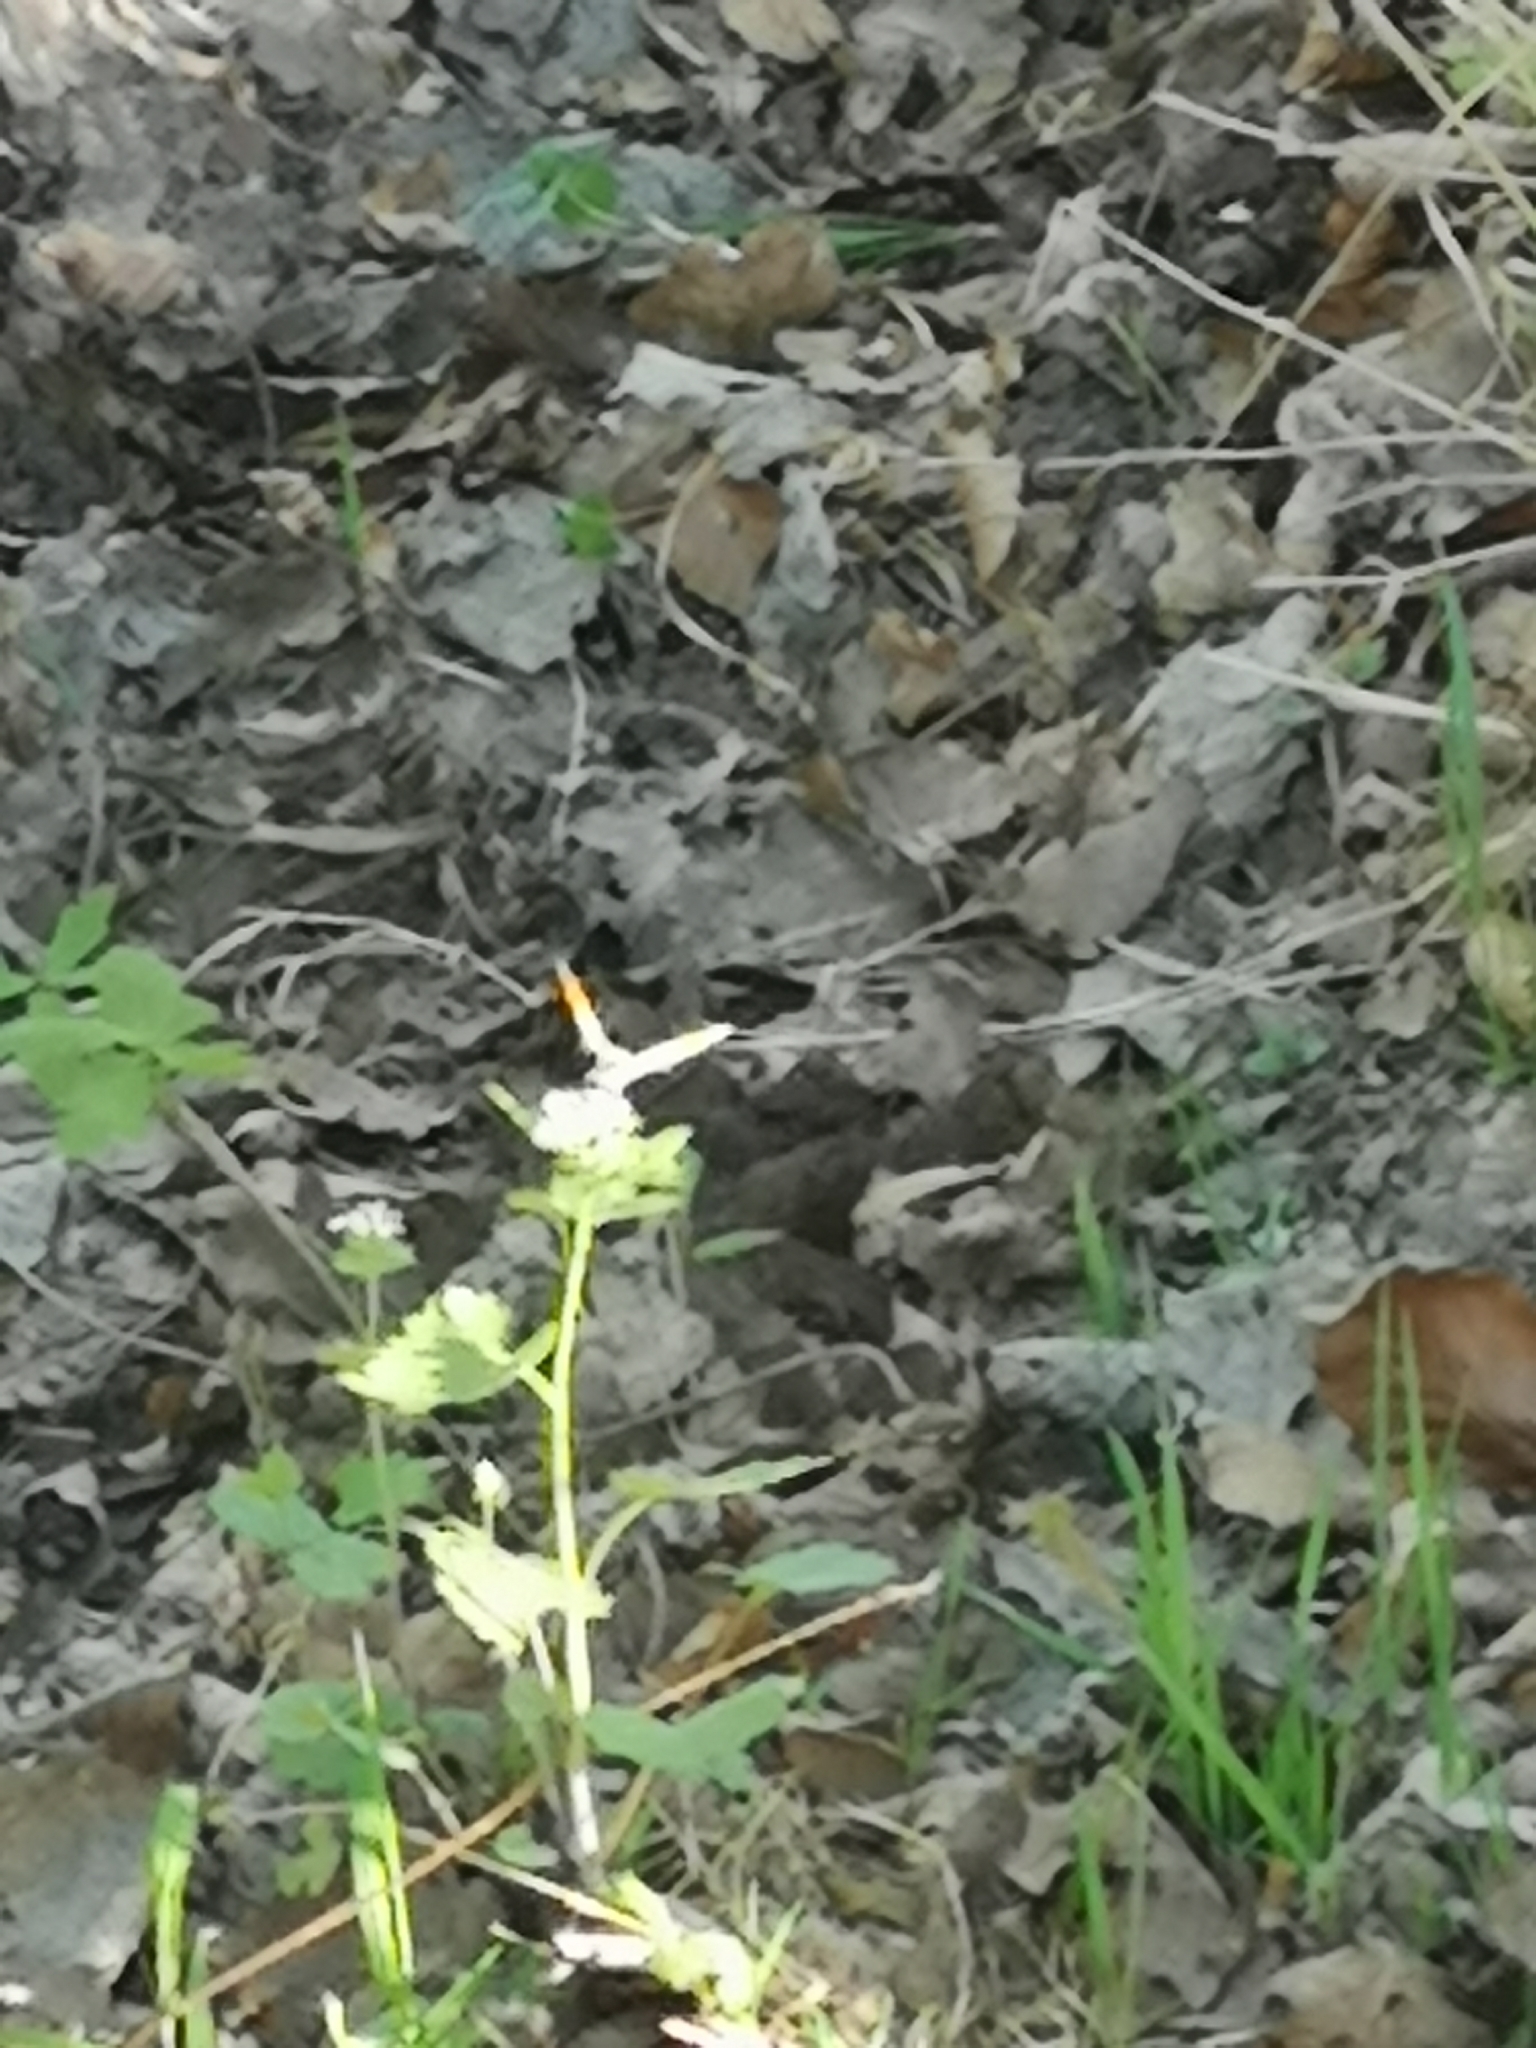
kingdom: Animalia
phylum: Arthropoda
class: Insecta
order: Lepidoptera
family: Pieridae
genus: Anthocharis
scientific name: Anthocharis cardamines
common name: Orange-tip
